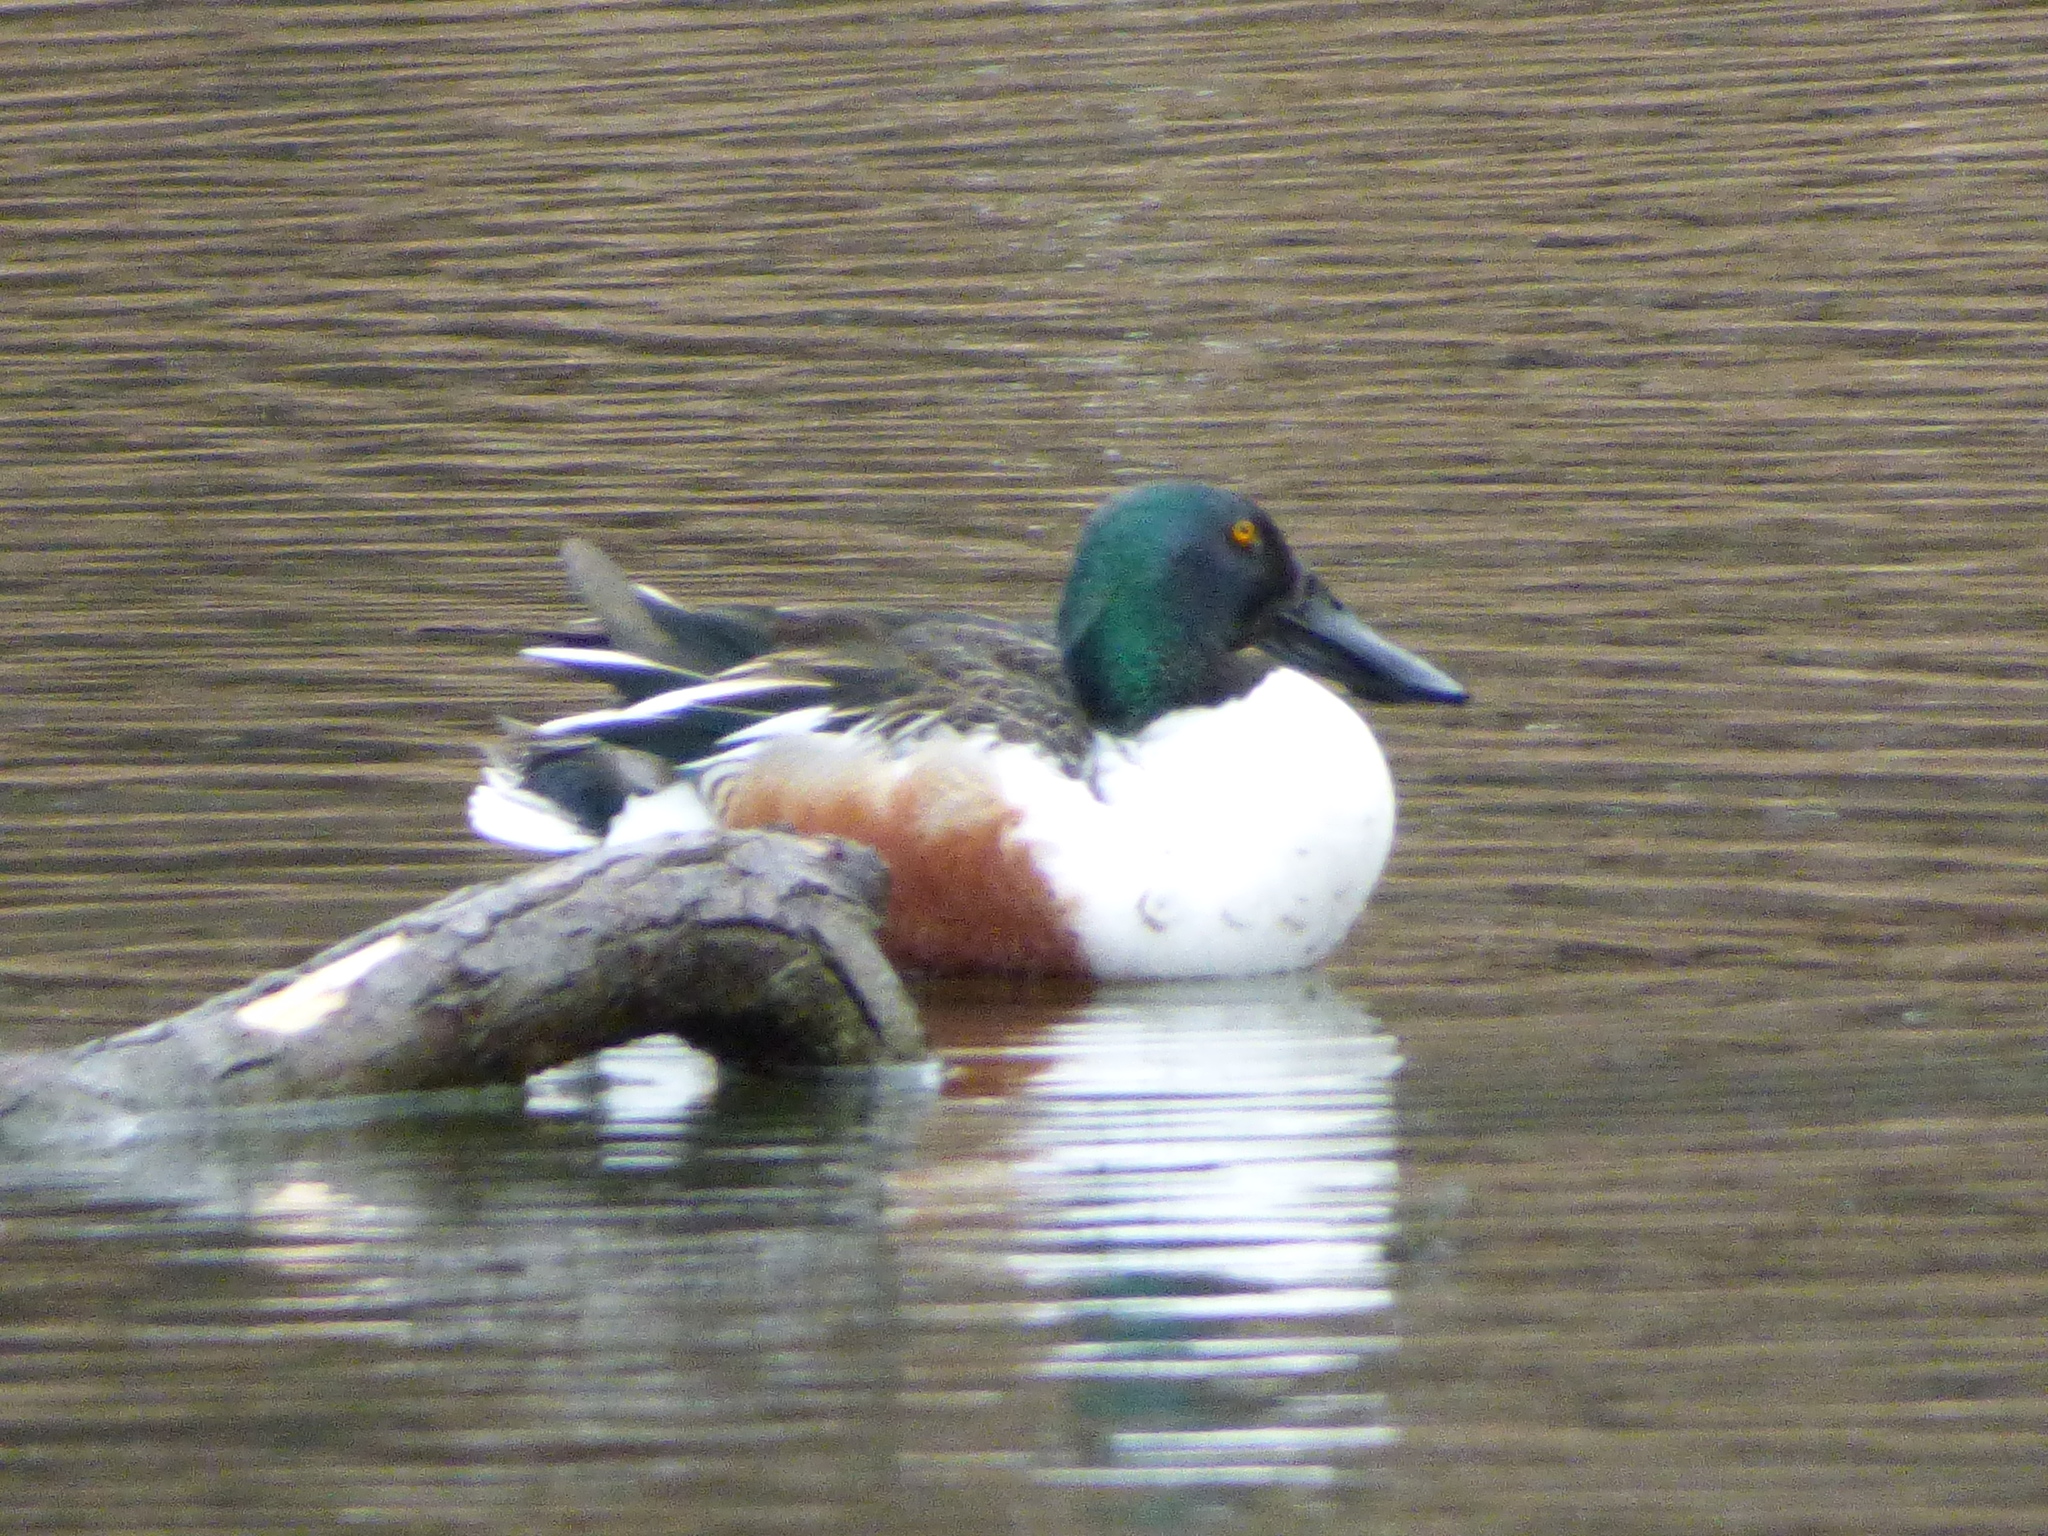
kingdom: Animalia
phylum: Chordata
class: Aves
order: Anseriformes
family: Anatidae
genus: Spatula
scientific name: Spatula clypeata
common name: Northern shoveler
